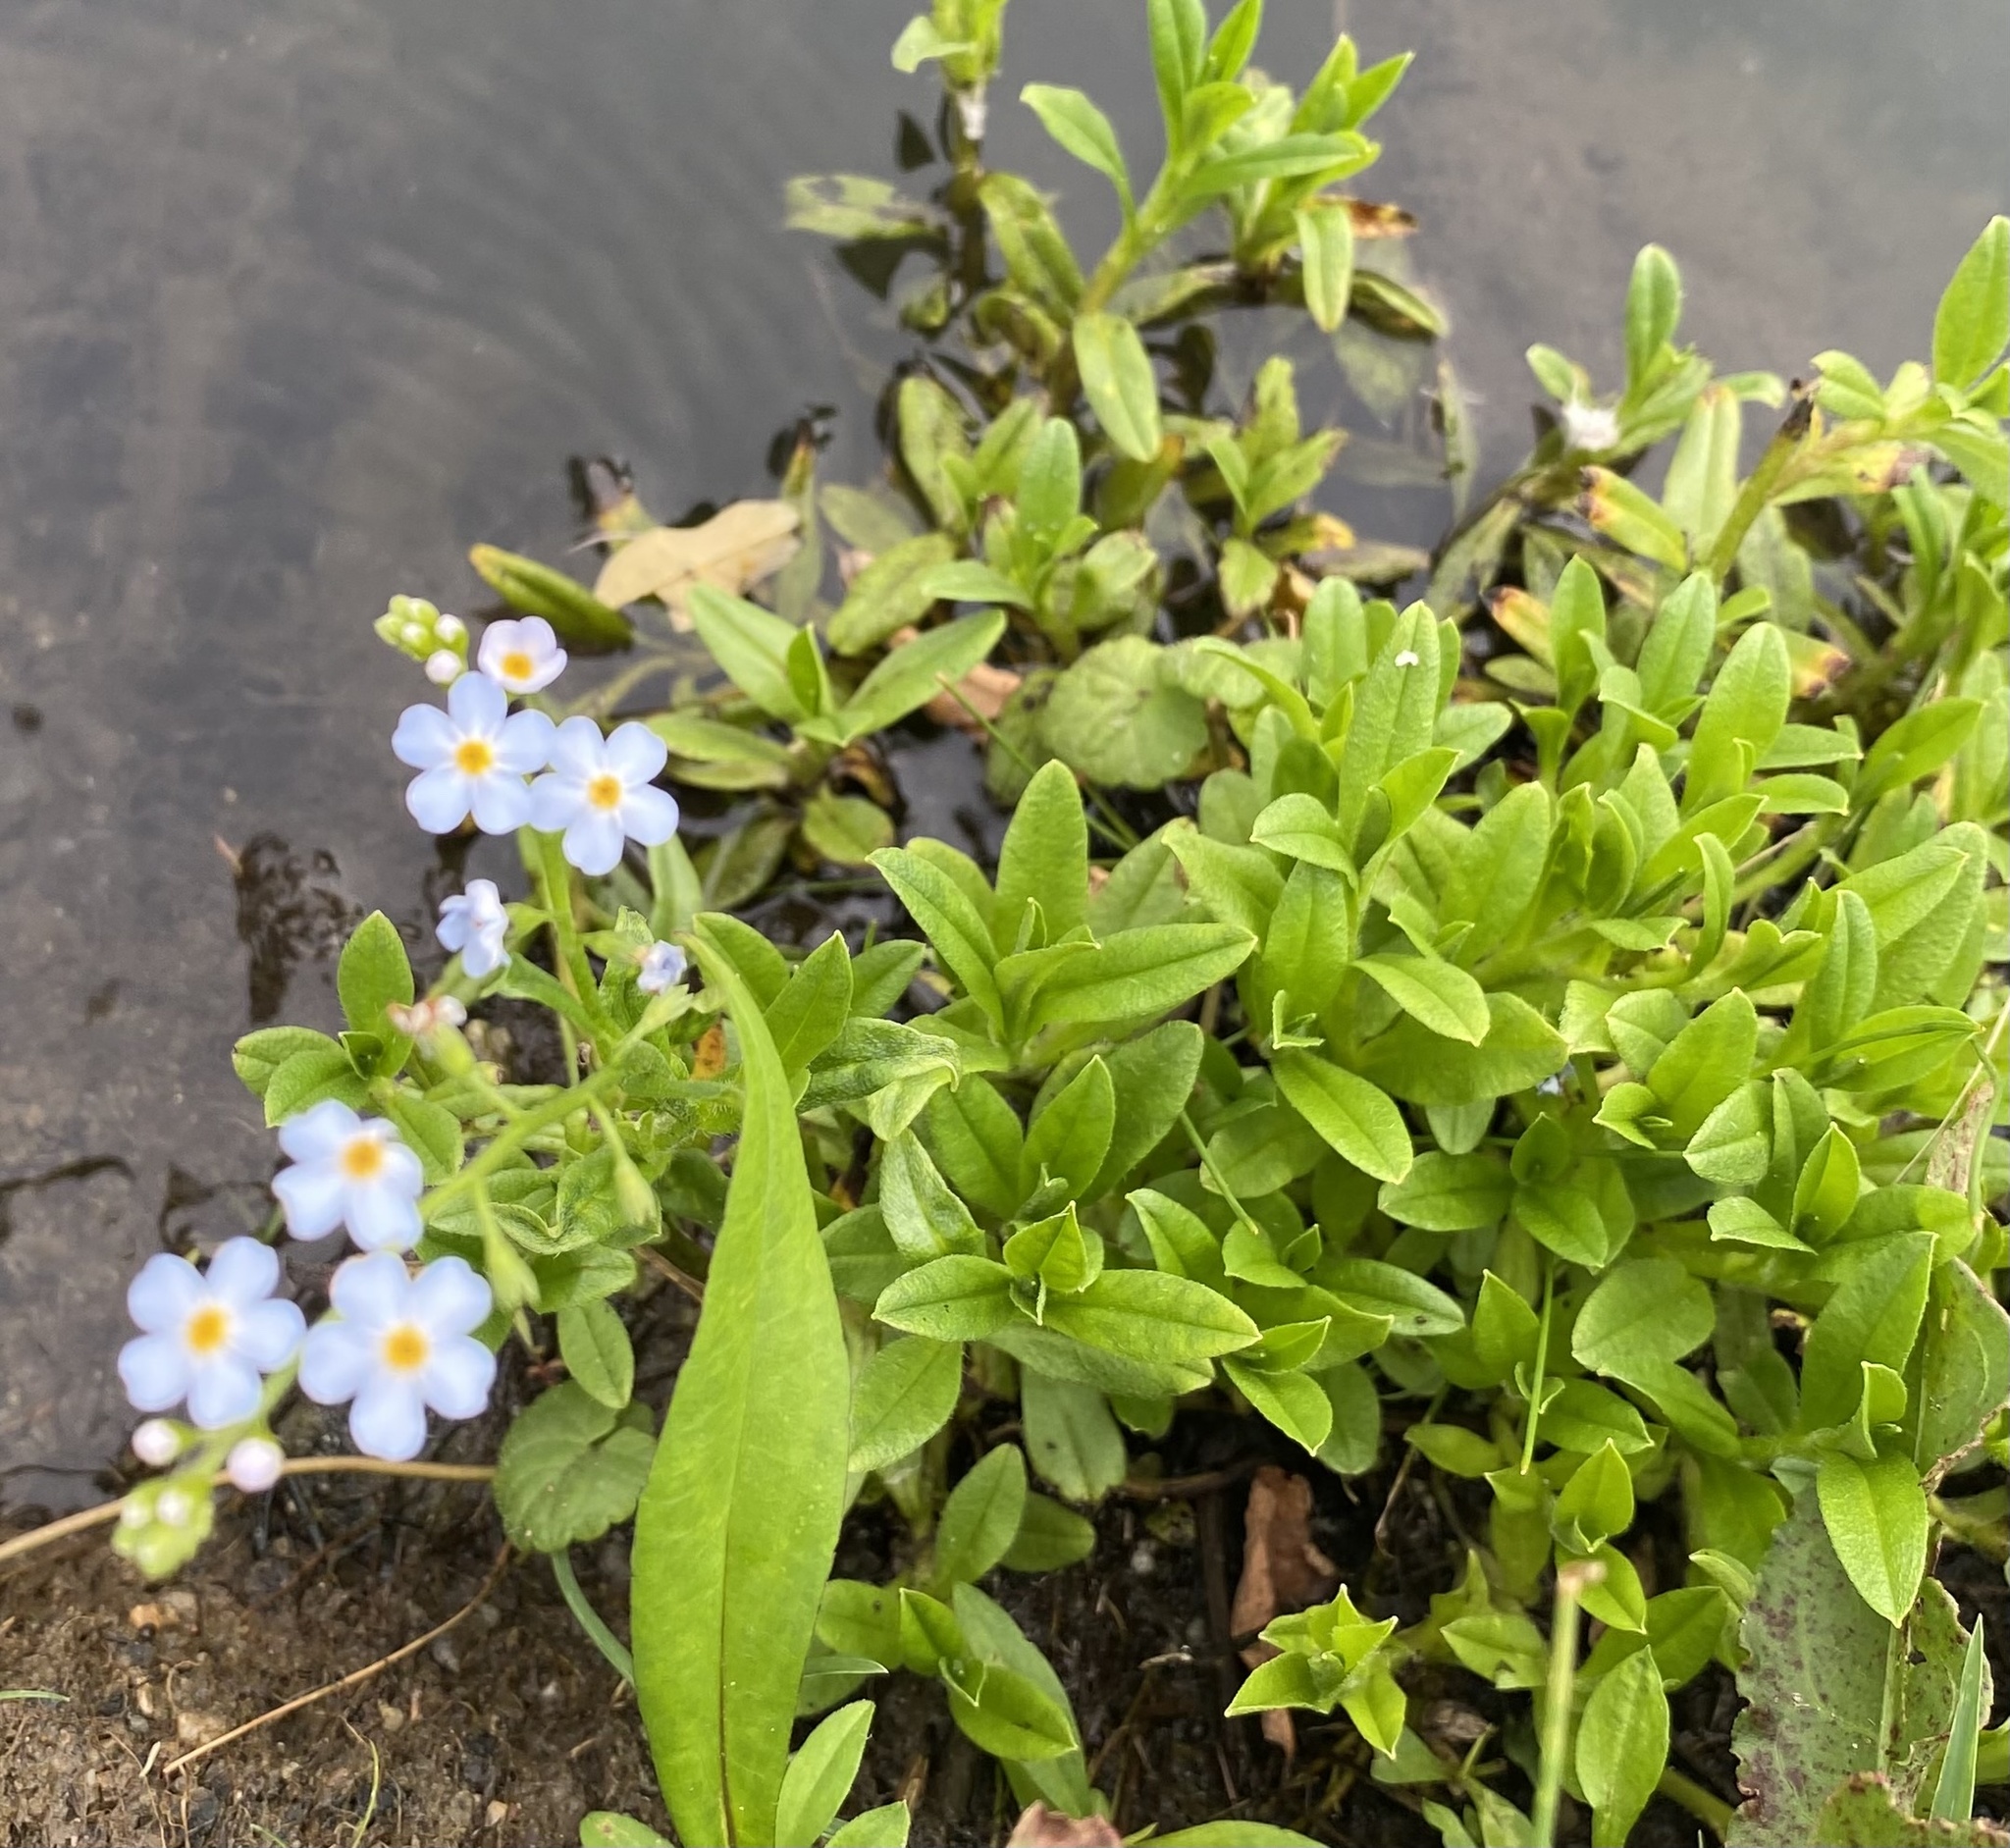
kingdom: Plantae
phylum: Tracheophyta
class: Magnoliopsida
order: Boraginales
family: Boraginaceae
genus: Myosotis
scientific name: Myosotis scorpioides
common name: Water forget-me-not
